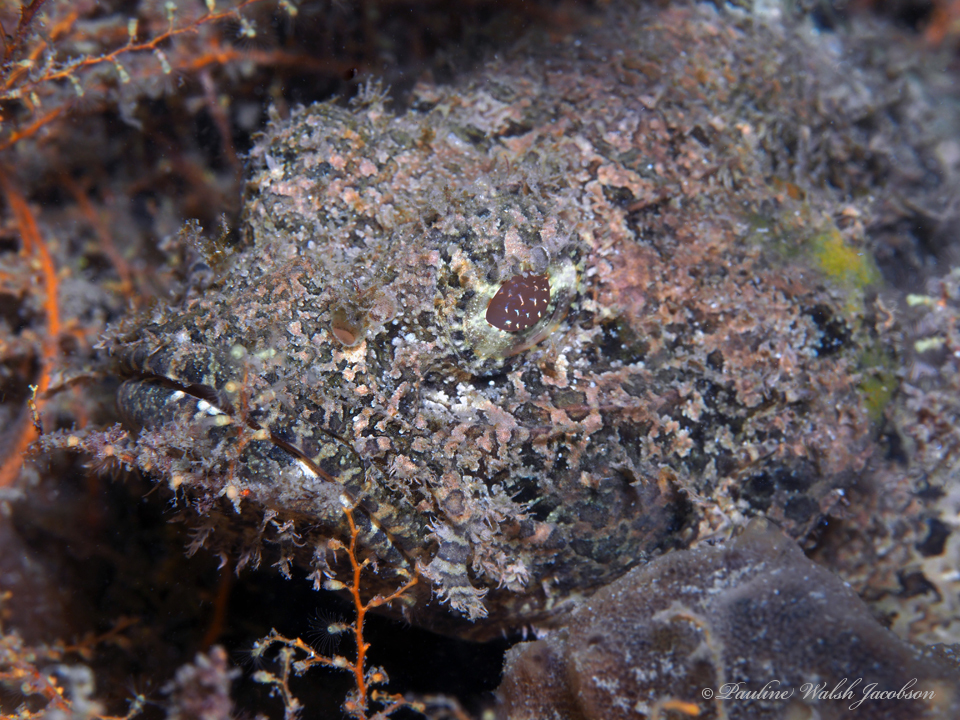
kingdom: Animalia
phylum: Chordata
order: Scorpaeniformes
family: Scorpaenidae
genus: Scorpaena
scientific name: Scorpaena plumieri
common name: Spotted scorpionfish
